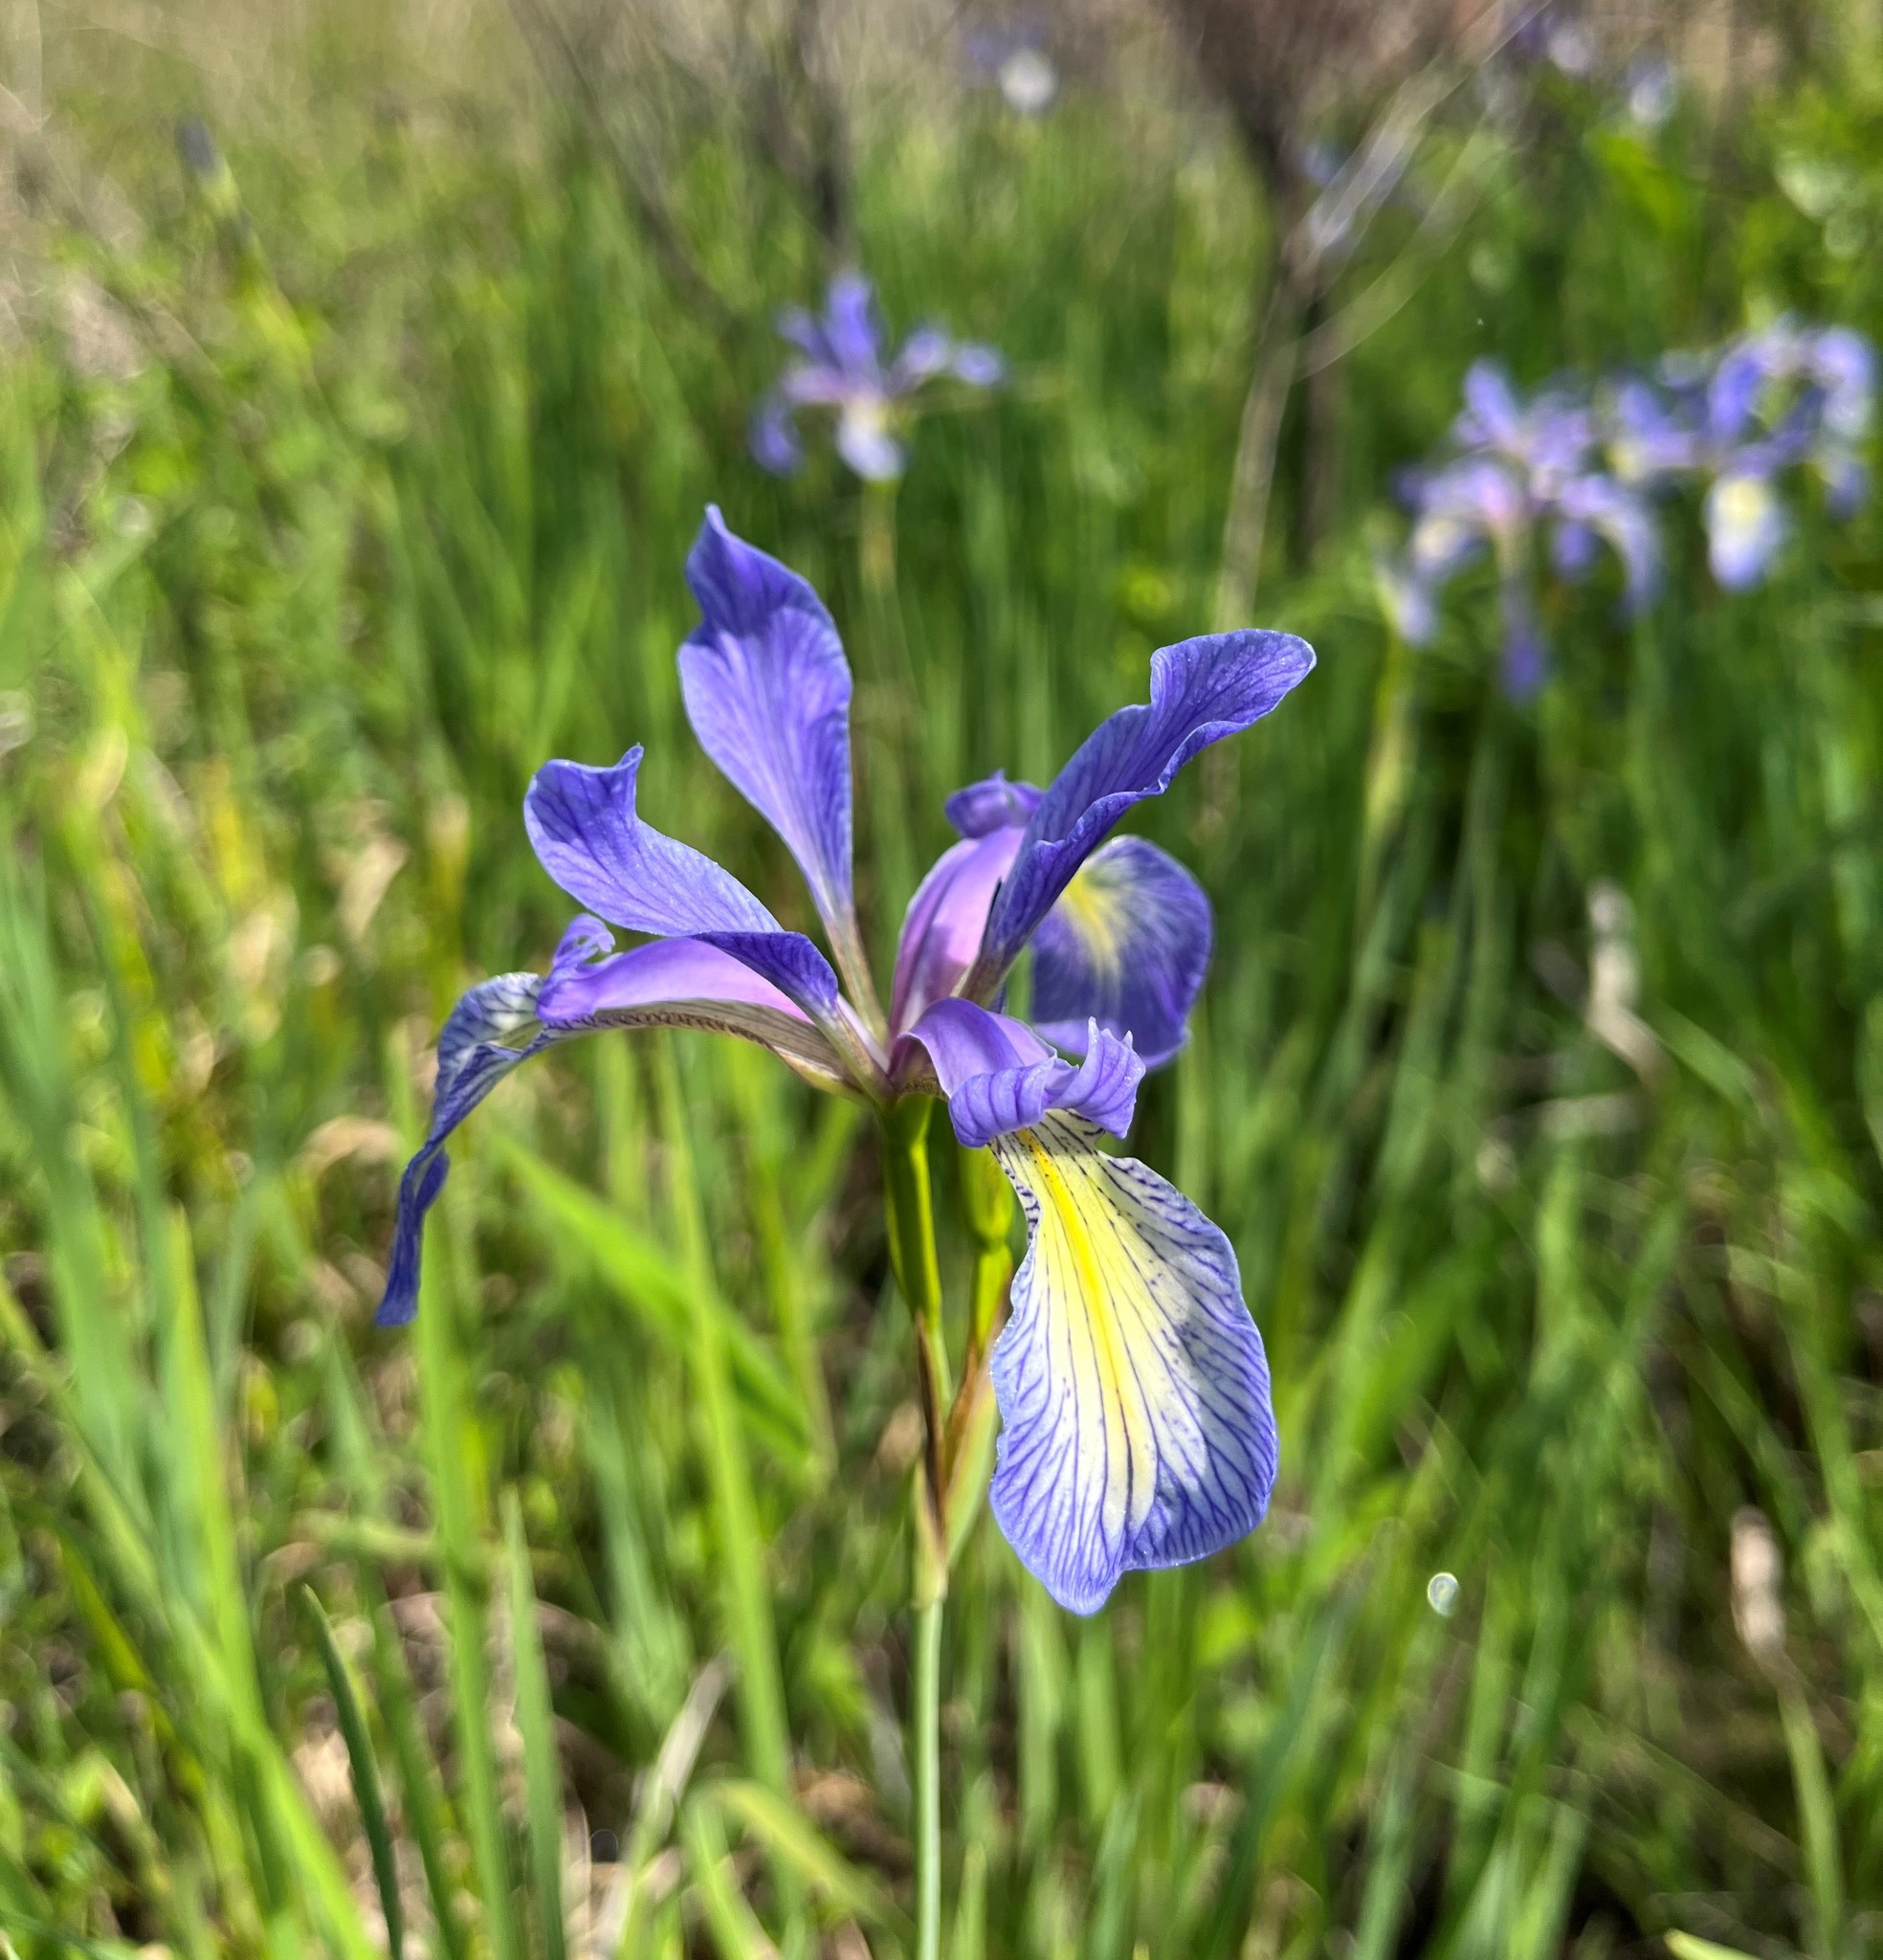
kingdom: Plantae
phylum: Tracheophyta
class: Liliopsida
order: Asparagales
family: Iridaceae
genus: Iris
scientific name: Iris prismatica
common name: Slender blue flag
